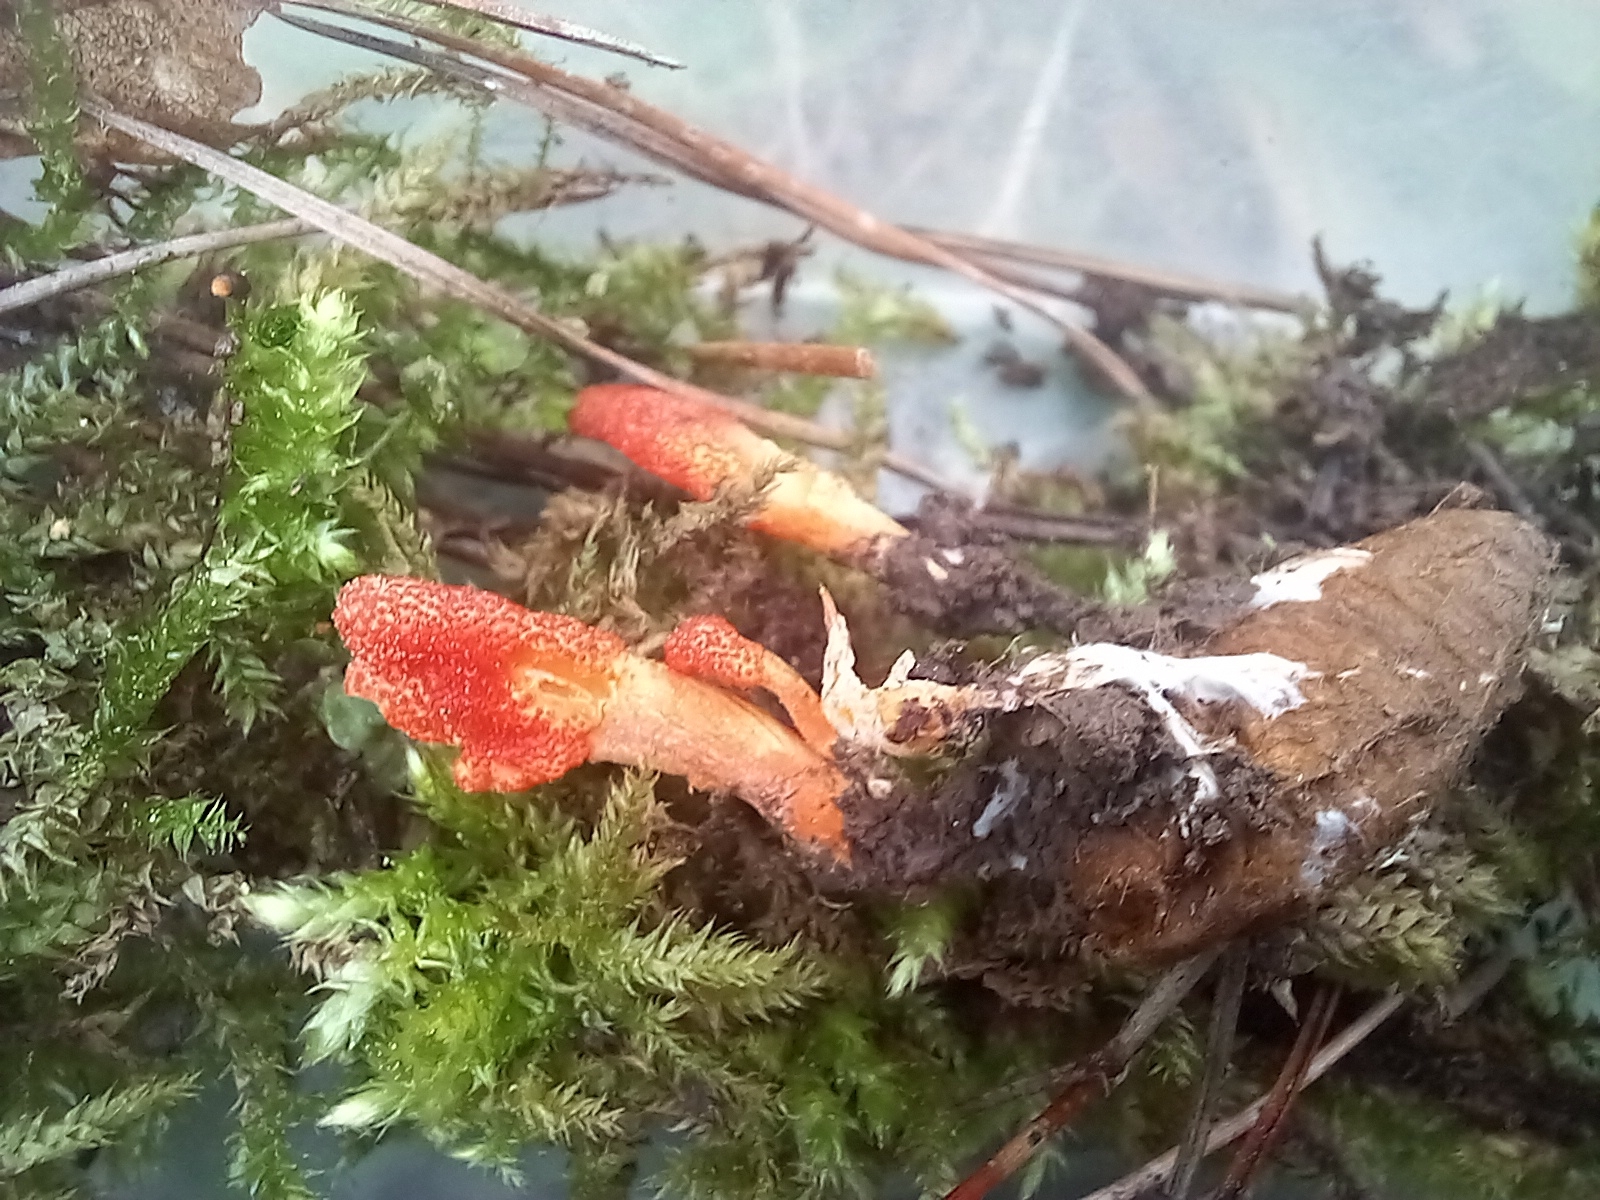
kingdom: Fungi
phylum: Ascomycota
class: Sordariomycetes
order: Hypocreales
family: Cordycipitaceae
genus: Cordyceps
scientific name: Cordyceps militaris
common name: Scarlet caterpillar fungus
